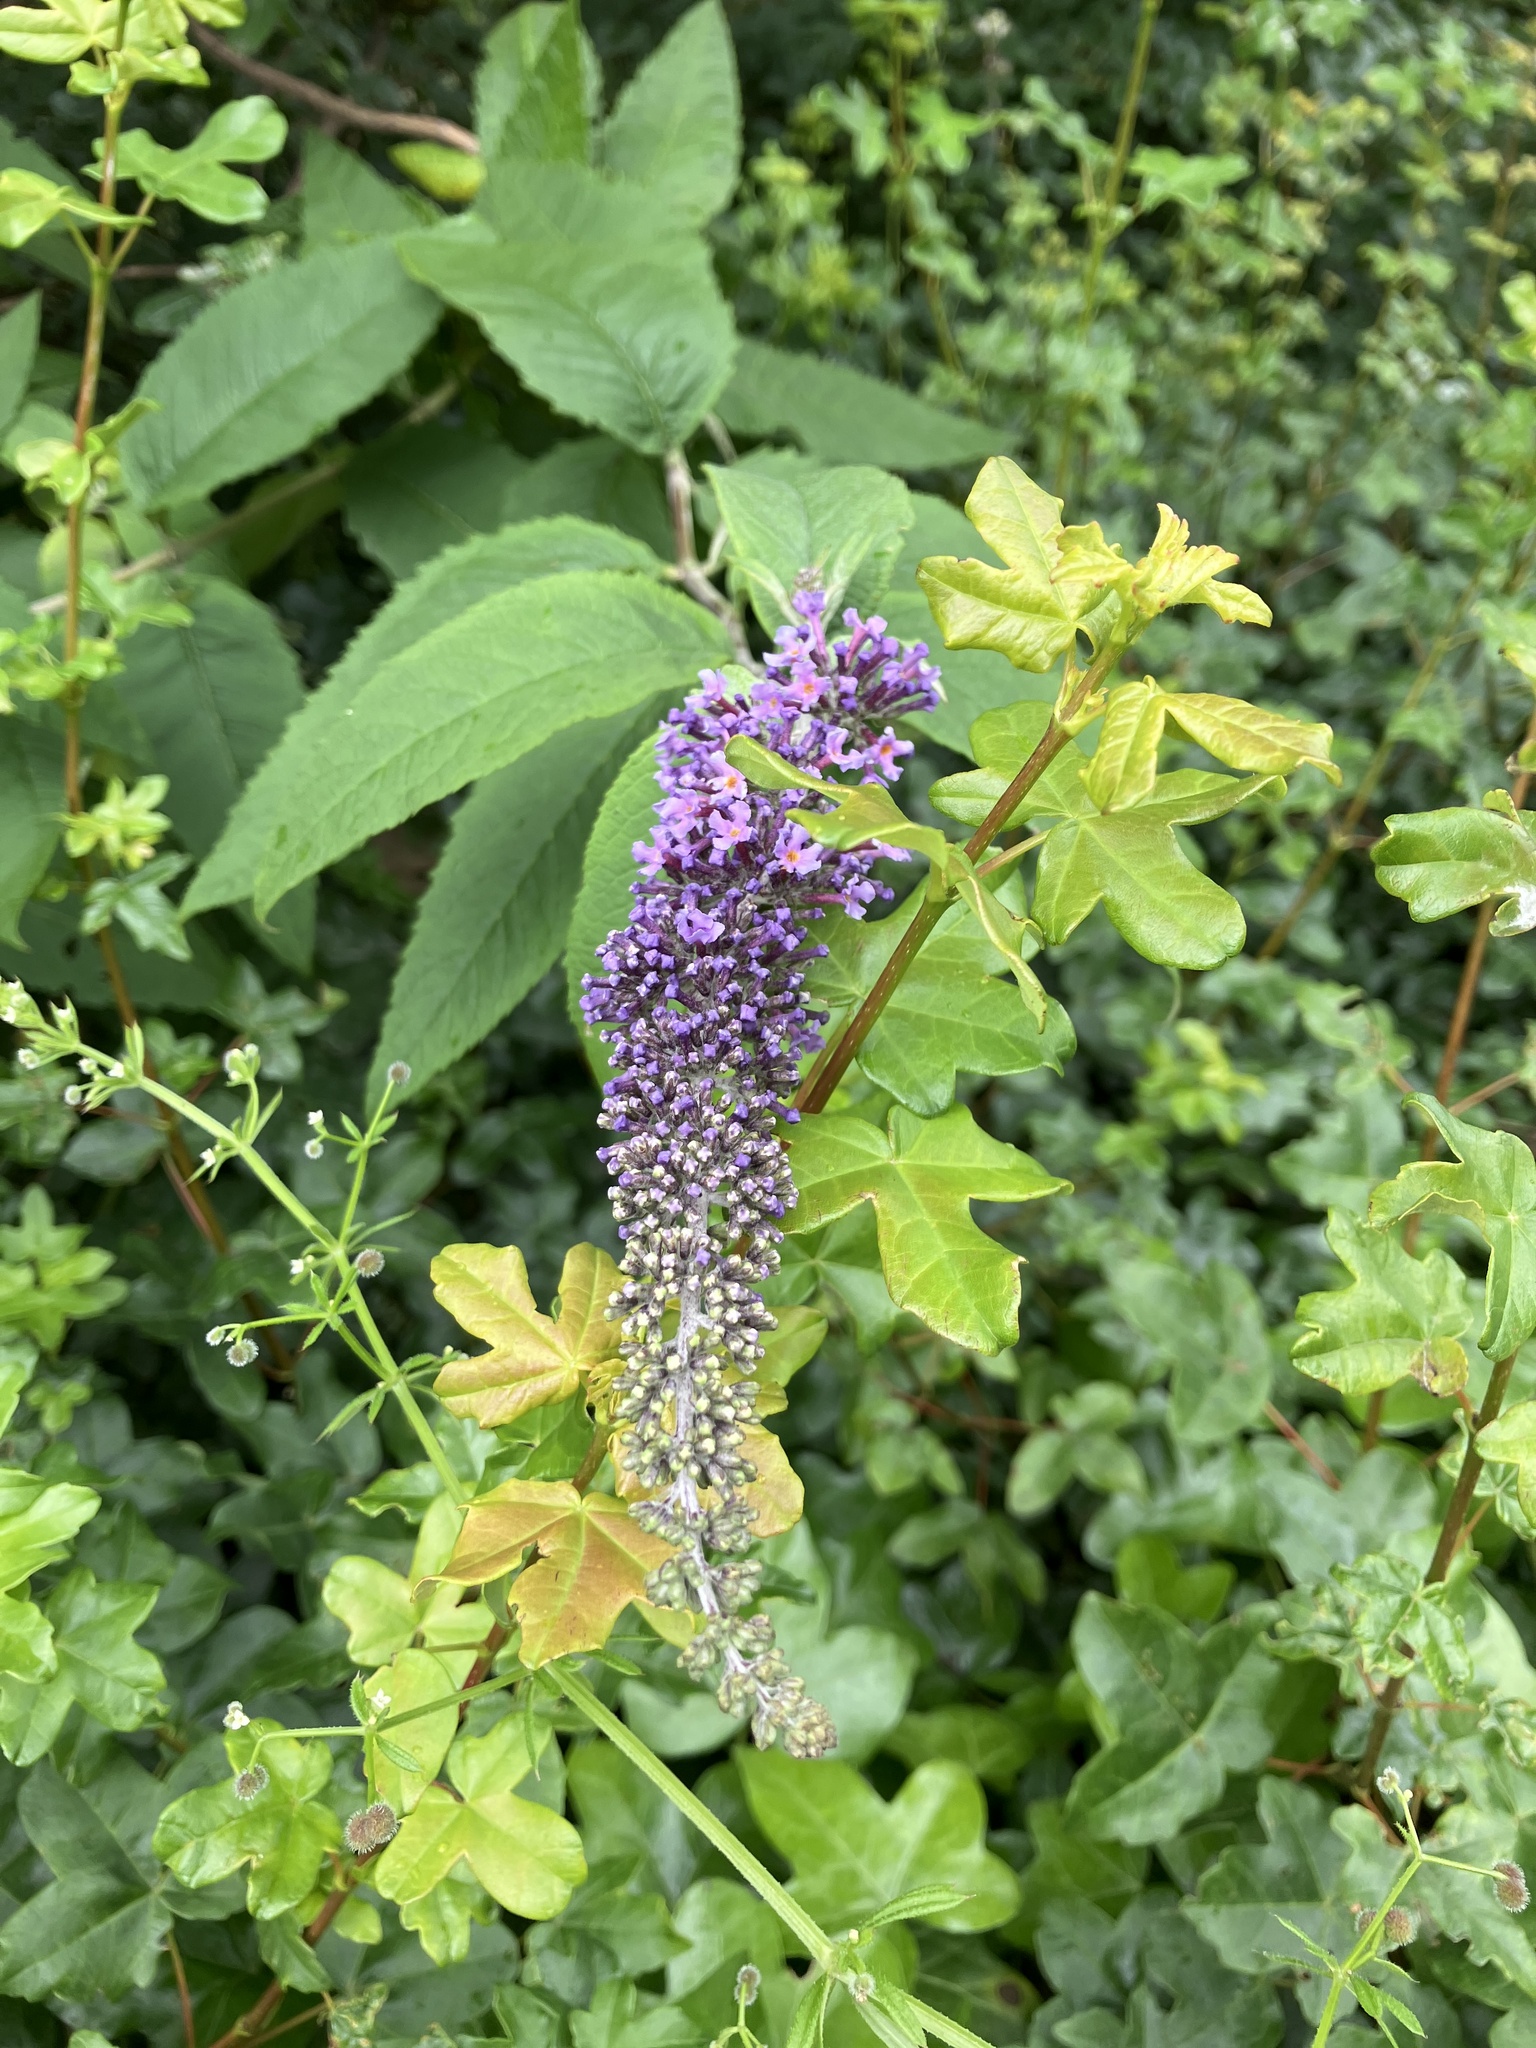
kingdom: Plantae
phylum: Tracheophyta
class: Magnoliopsida
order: Lamiales
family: Scrophulariaceae
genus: Buddleja
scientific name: Buddleja davidii
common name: Butterfly-bush
